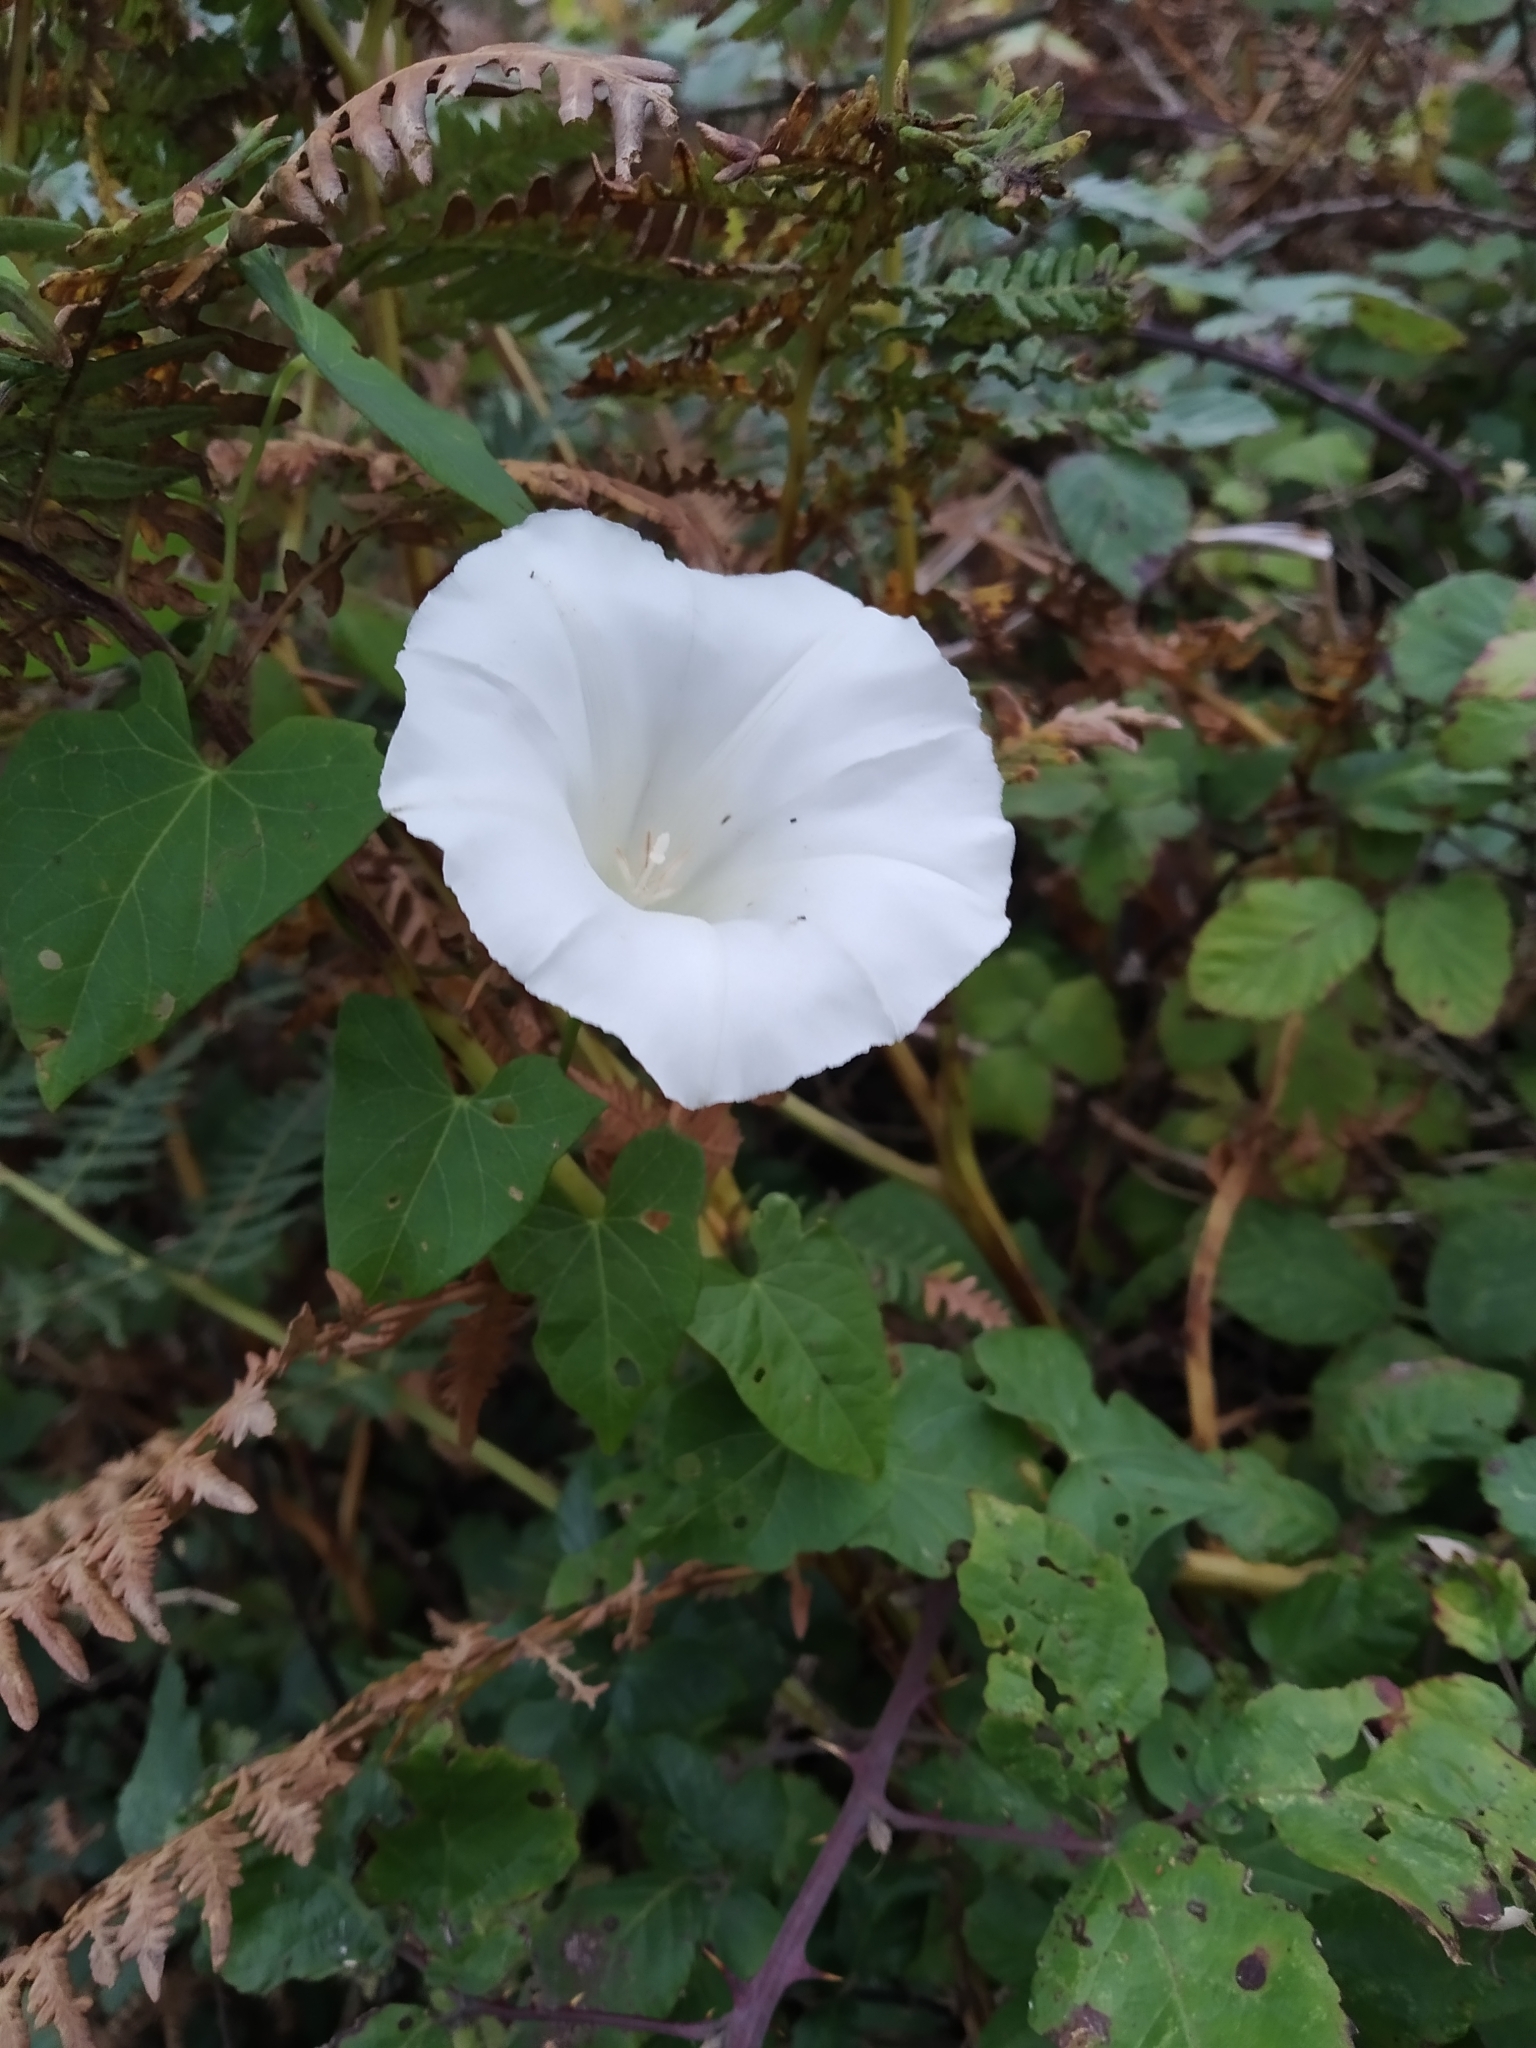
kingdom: Plantae
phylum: Tracheophyta
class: Magnoliopsida
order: Solanales
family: Convolvulaceae
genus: Calystegia
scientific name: Calystegia sepium
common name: Hedge bindweed
